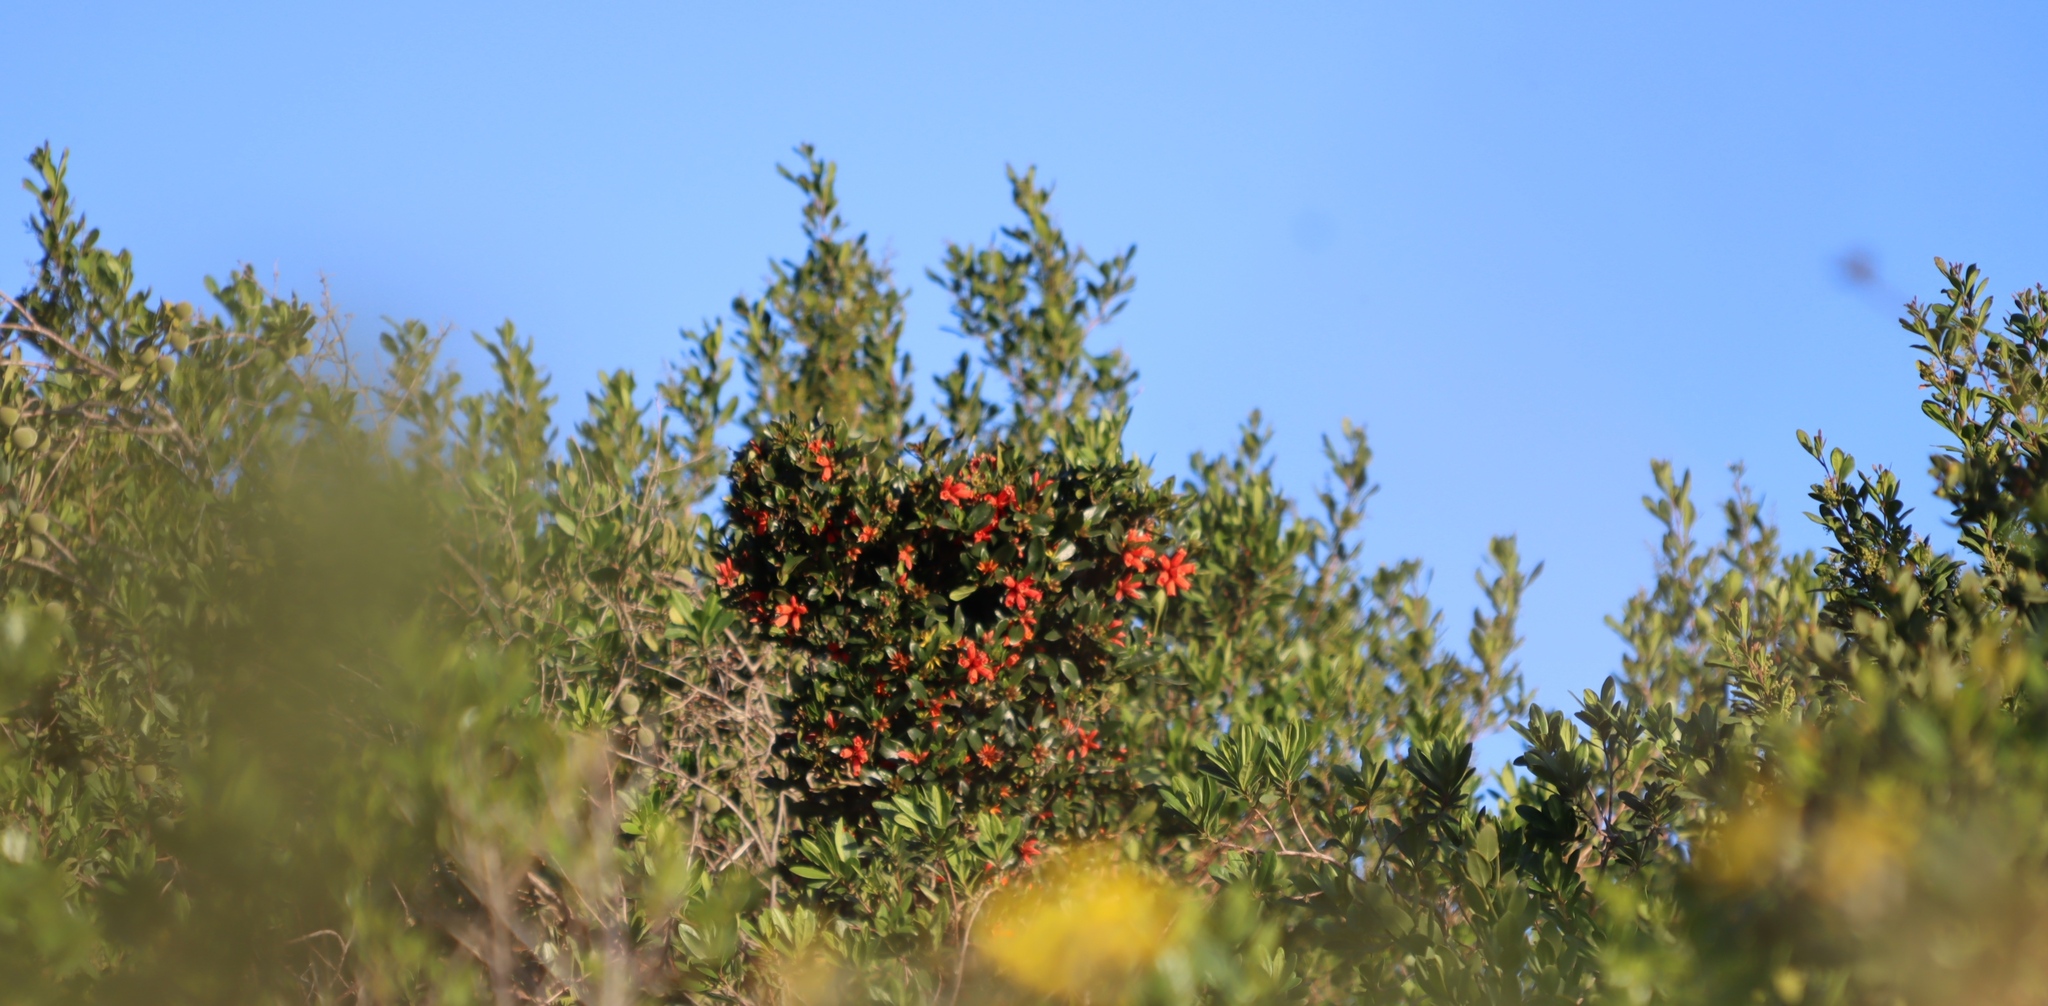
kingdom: Plantae
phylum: Tracheophyta
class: Magnoliopsida
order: Gentianales
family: Rubiaceae
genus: Burchellia
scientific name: Burchellia bubalina
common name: Wild pomegranate
